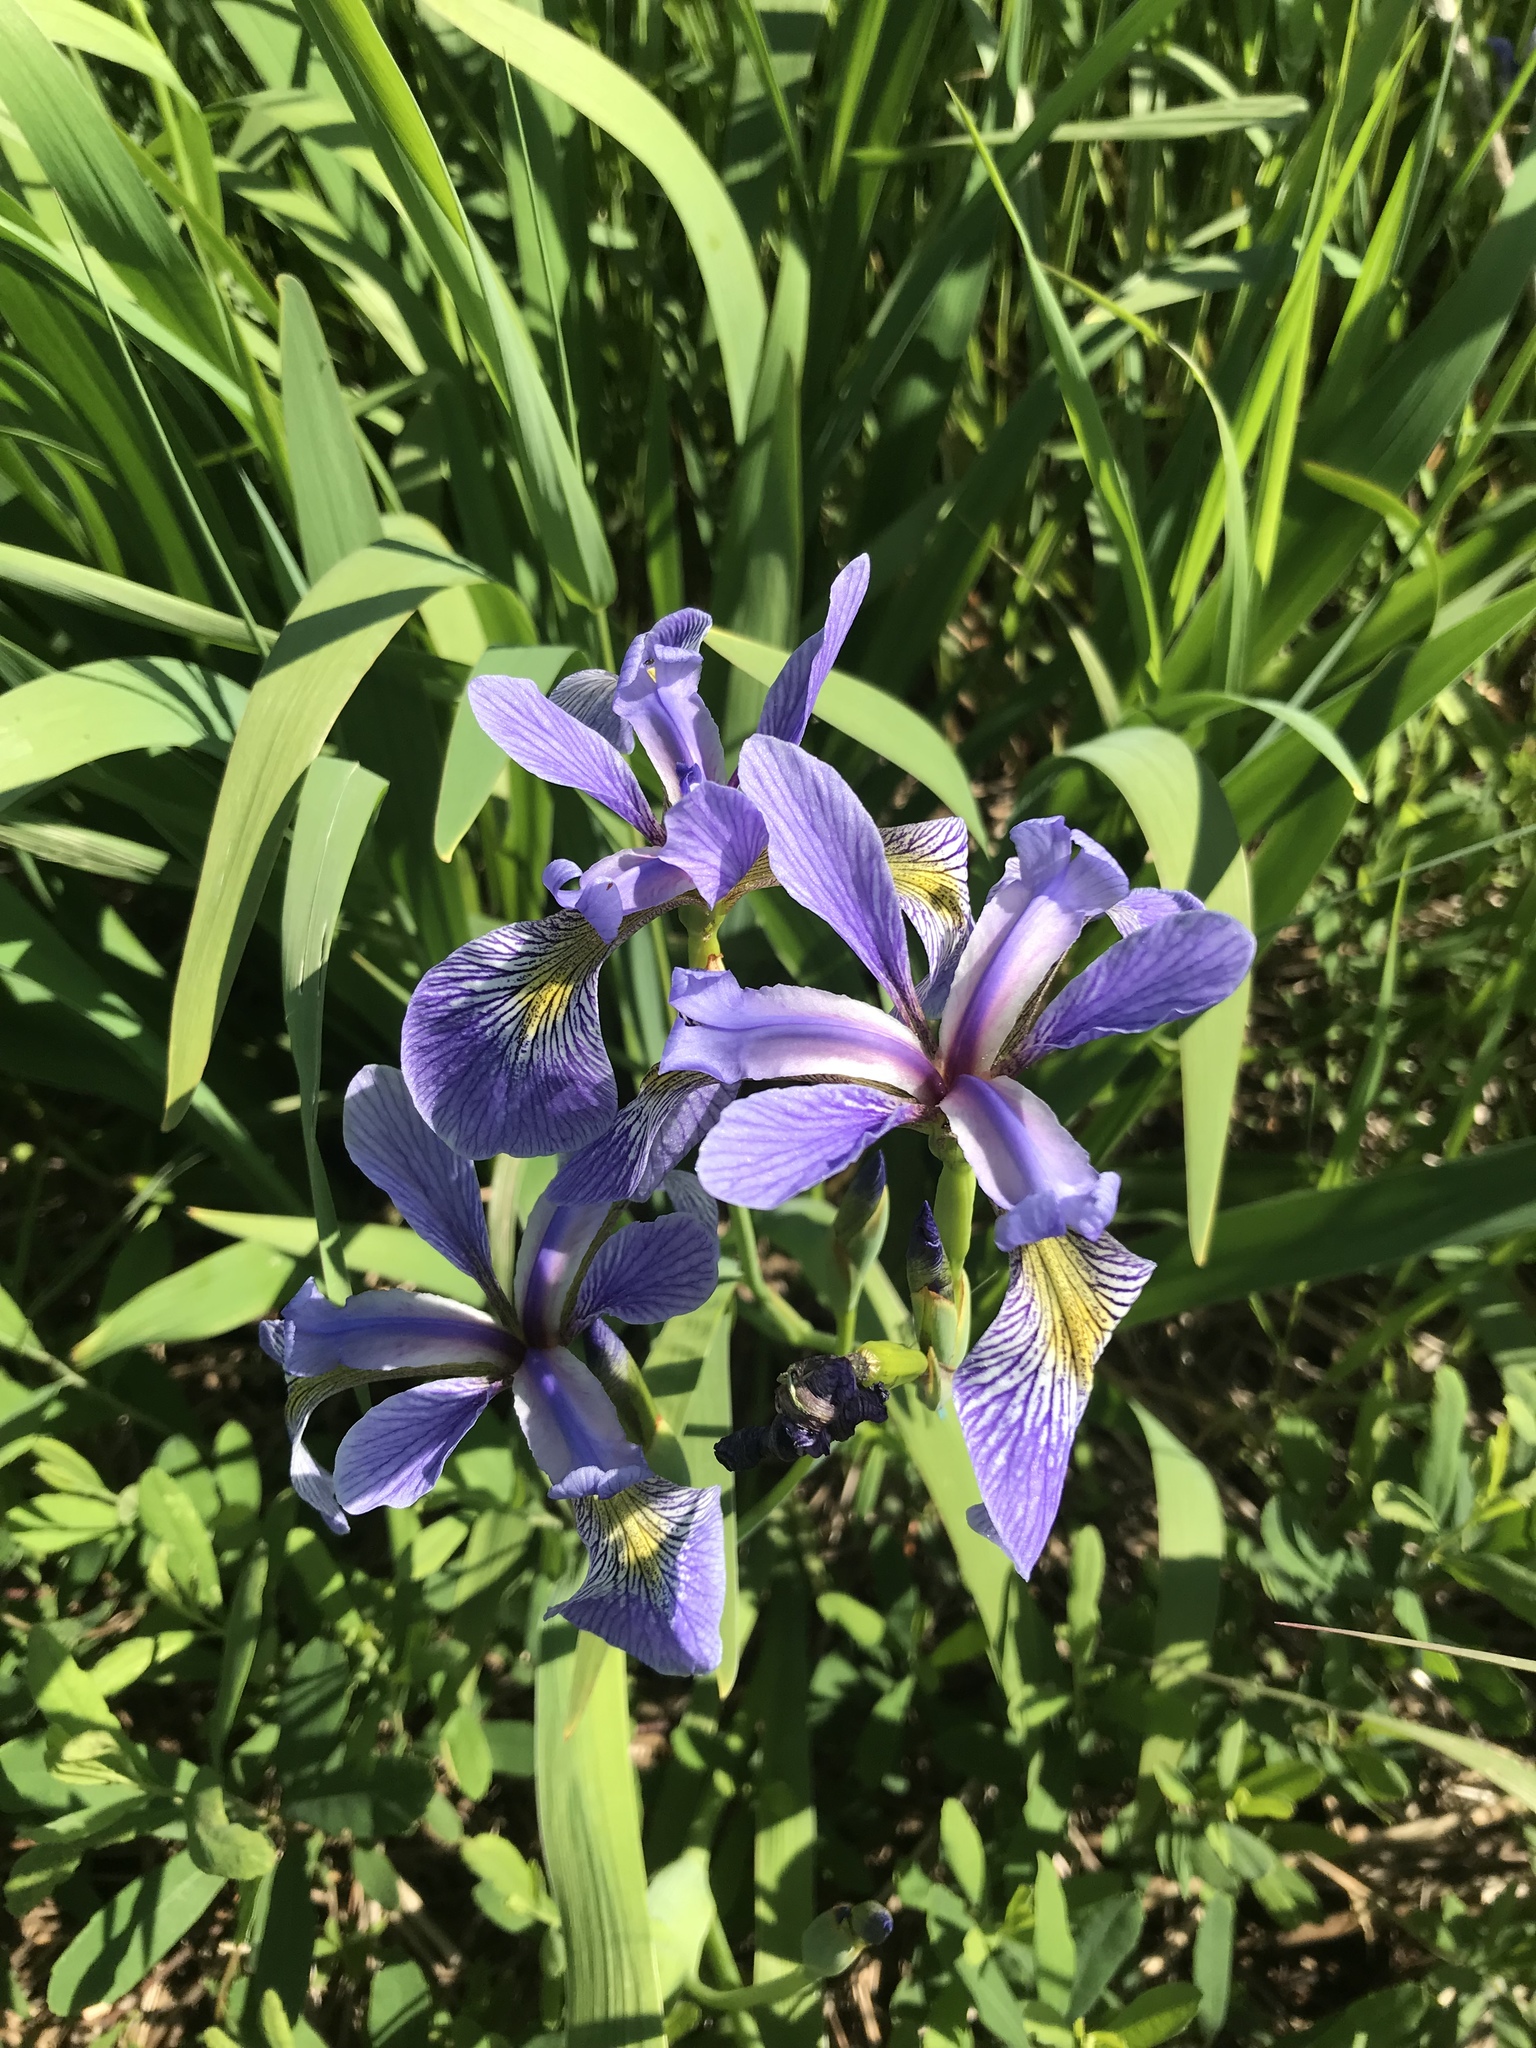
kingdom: Plantae
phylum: Tracheophyta
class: Liliopsida
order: Asparagales
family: Iridaceae
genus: Iris
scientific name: Iris versicolor
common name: Purple iris
